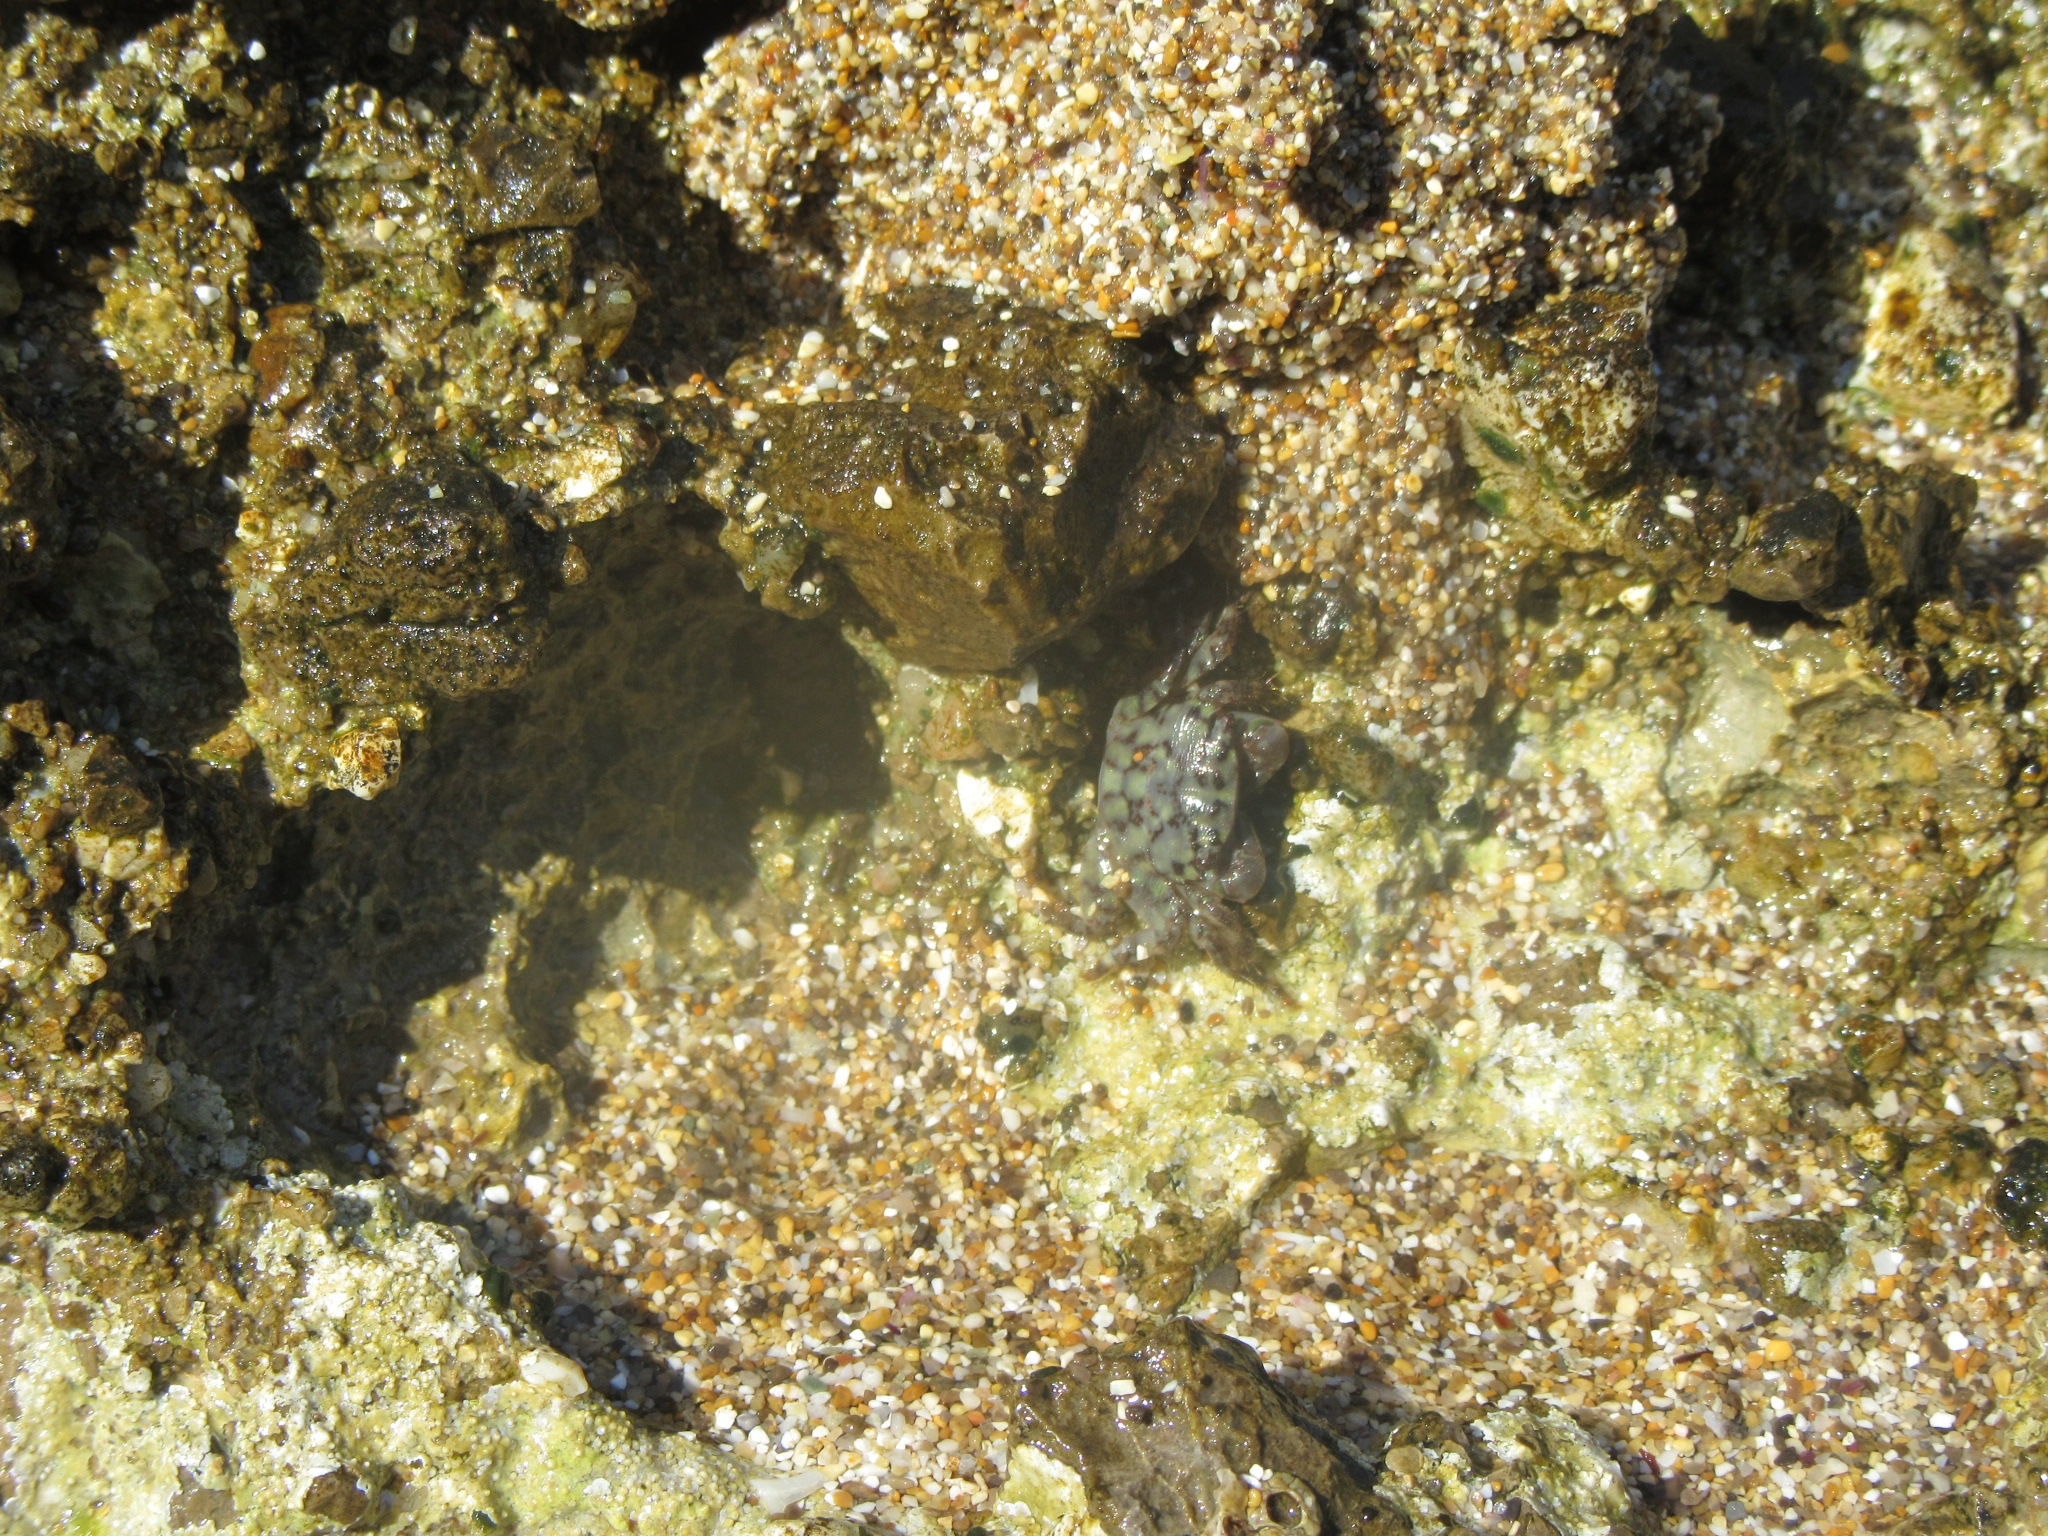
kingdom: Animalia
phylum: Arthropoda
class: Malacostraca
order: Decapoda
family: Grapsidae
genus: Pachygrapsus
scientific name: Pachygrapsus maurus
